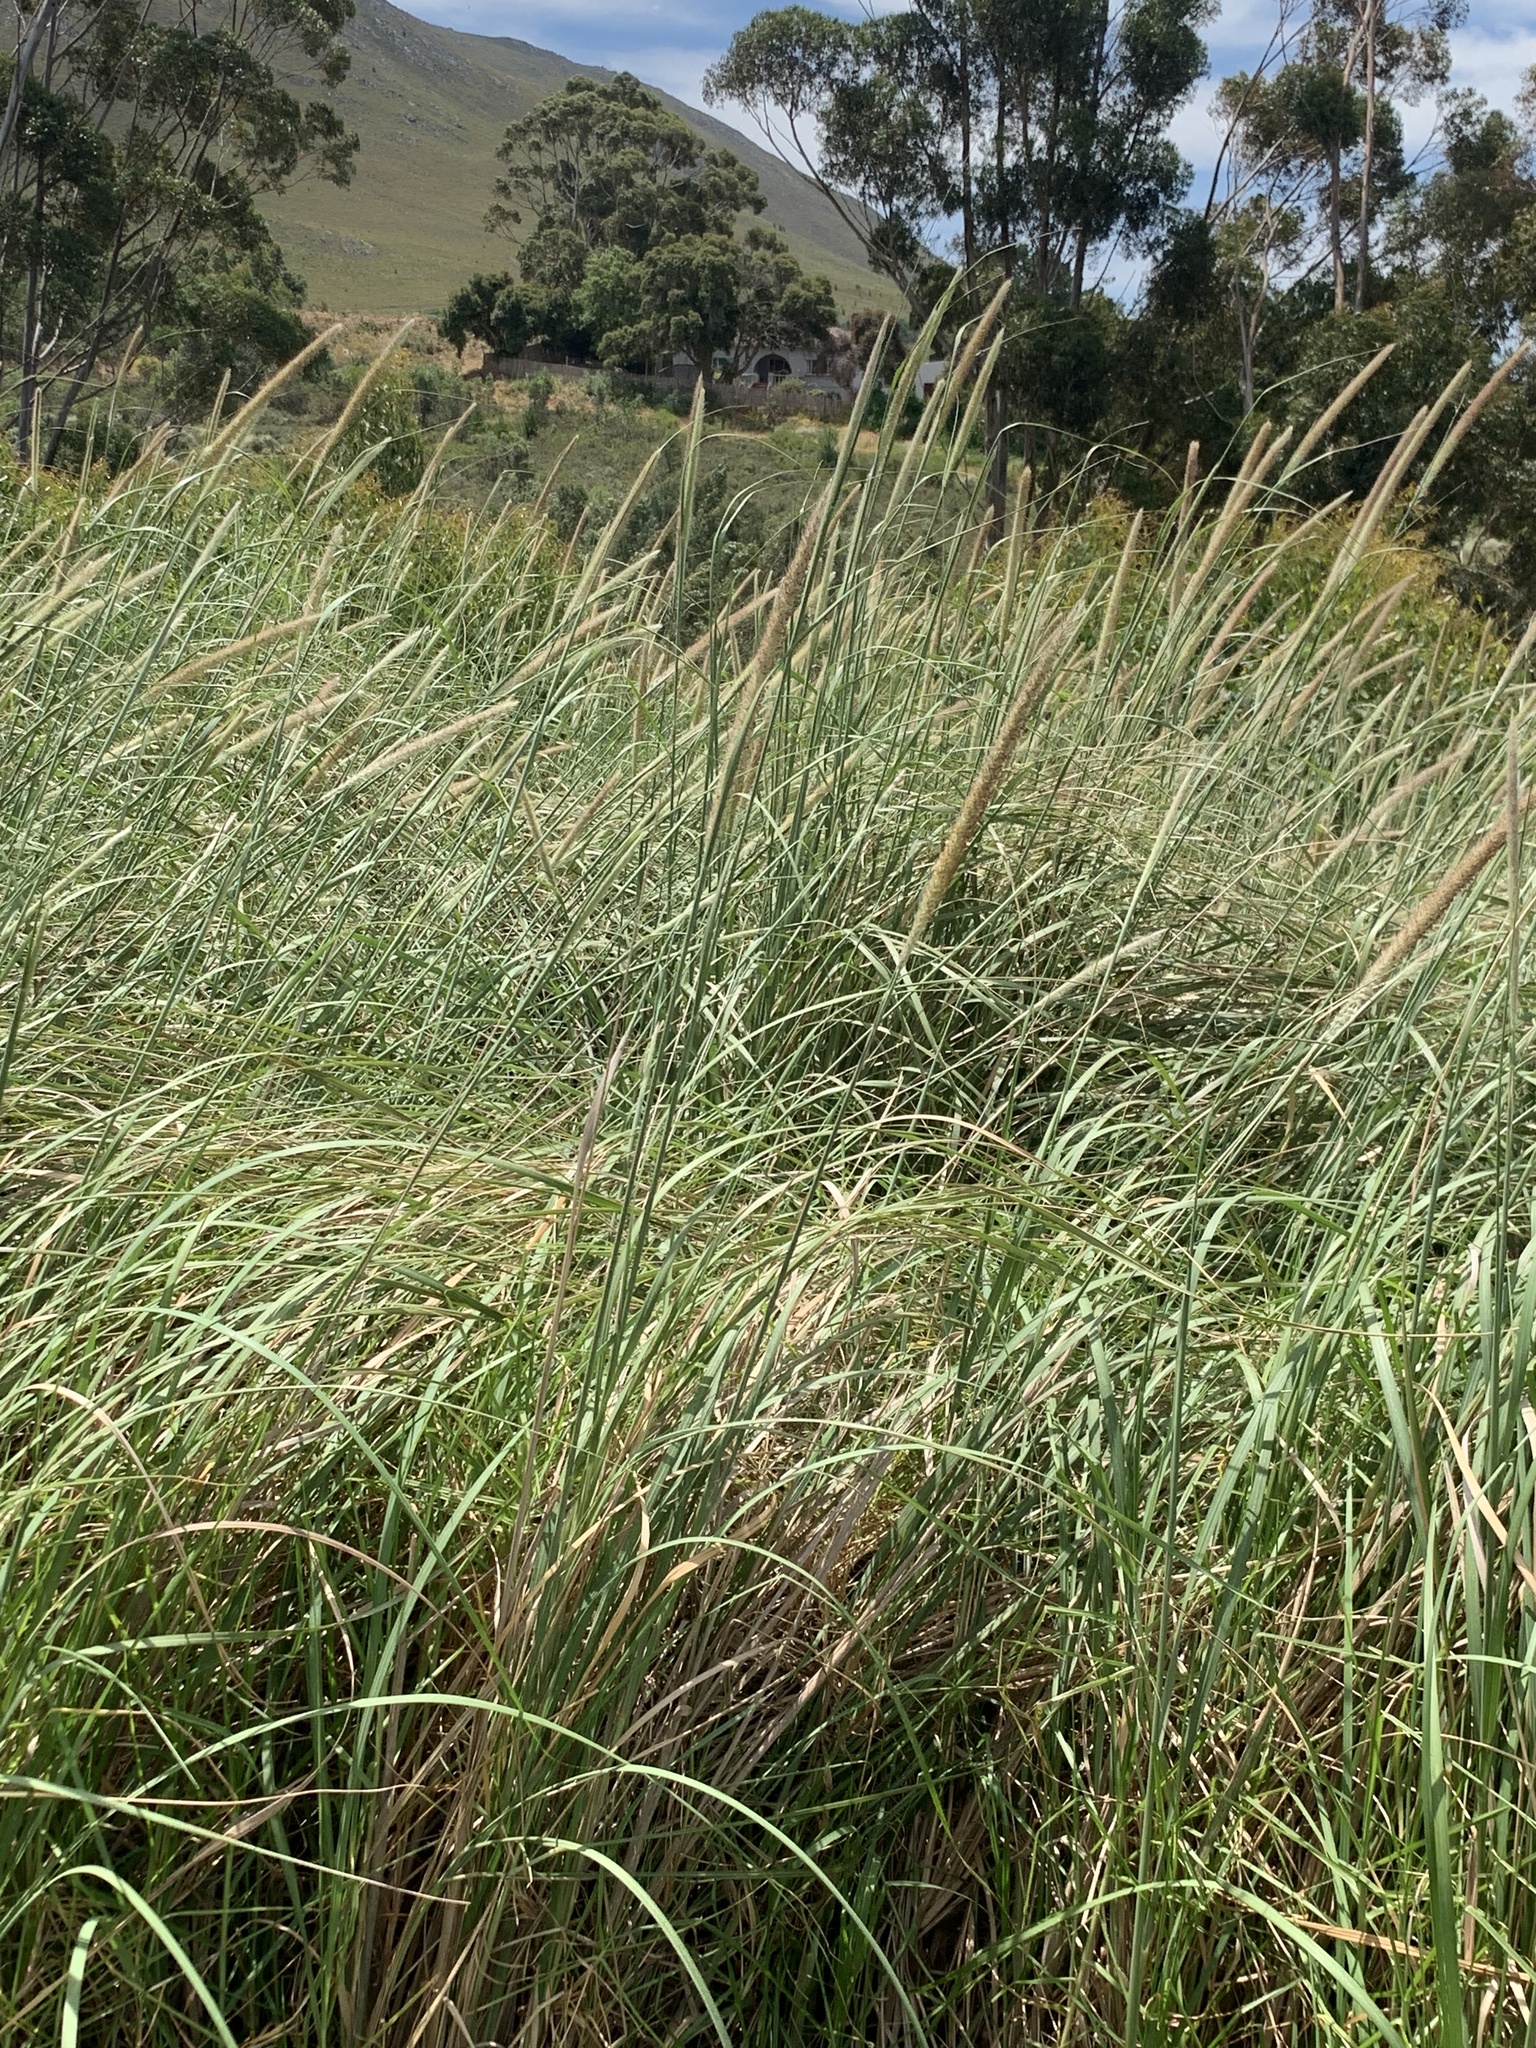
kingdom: Plantae
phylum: Tracheophyta
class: Liliopsida
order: Poales
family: Poaceae
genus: Cenchrus
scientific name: Cenchrus caudatus
